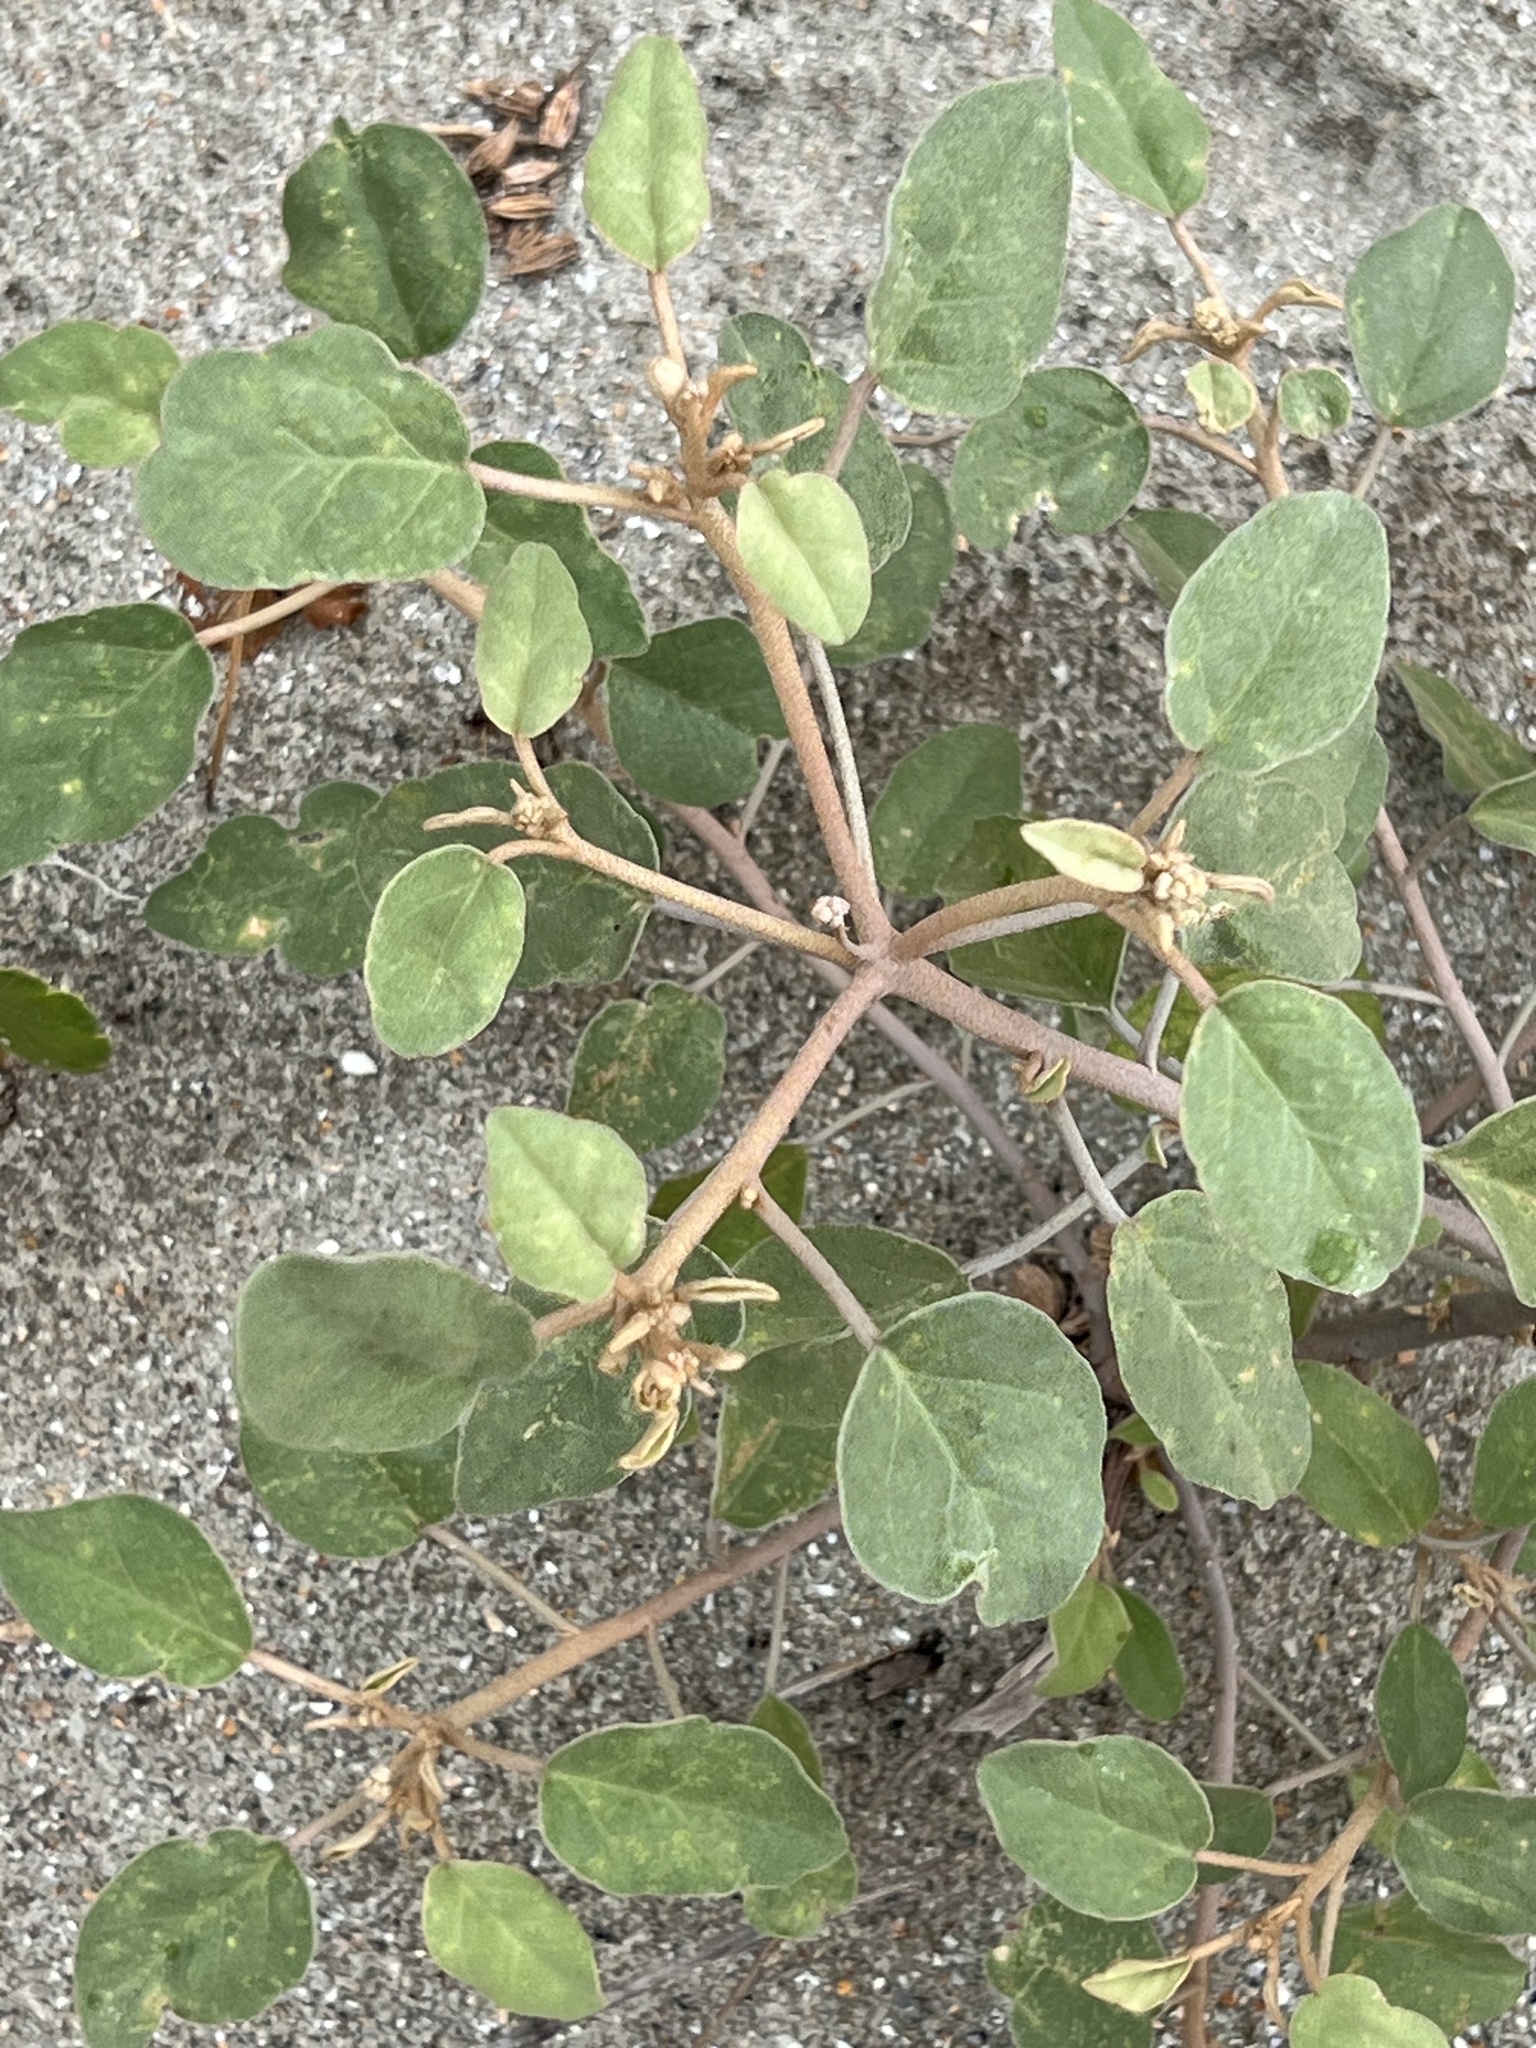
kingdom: Plantae
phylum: Tracheophyta
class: Magnoliopsida
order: Malpighiales
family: Euphorbiaceae
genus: Croton
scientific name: Croton punctatus
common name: Beach-tea
